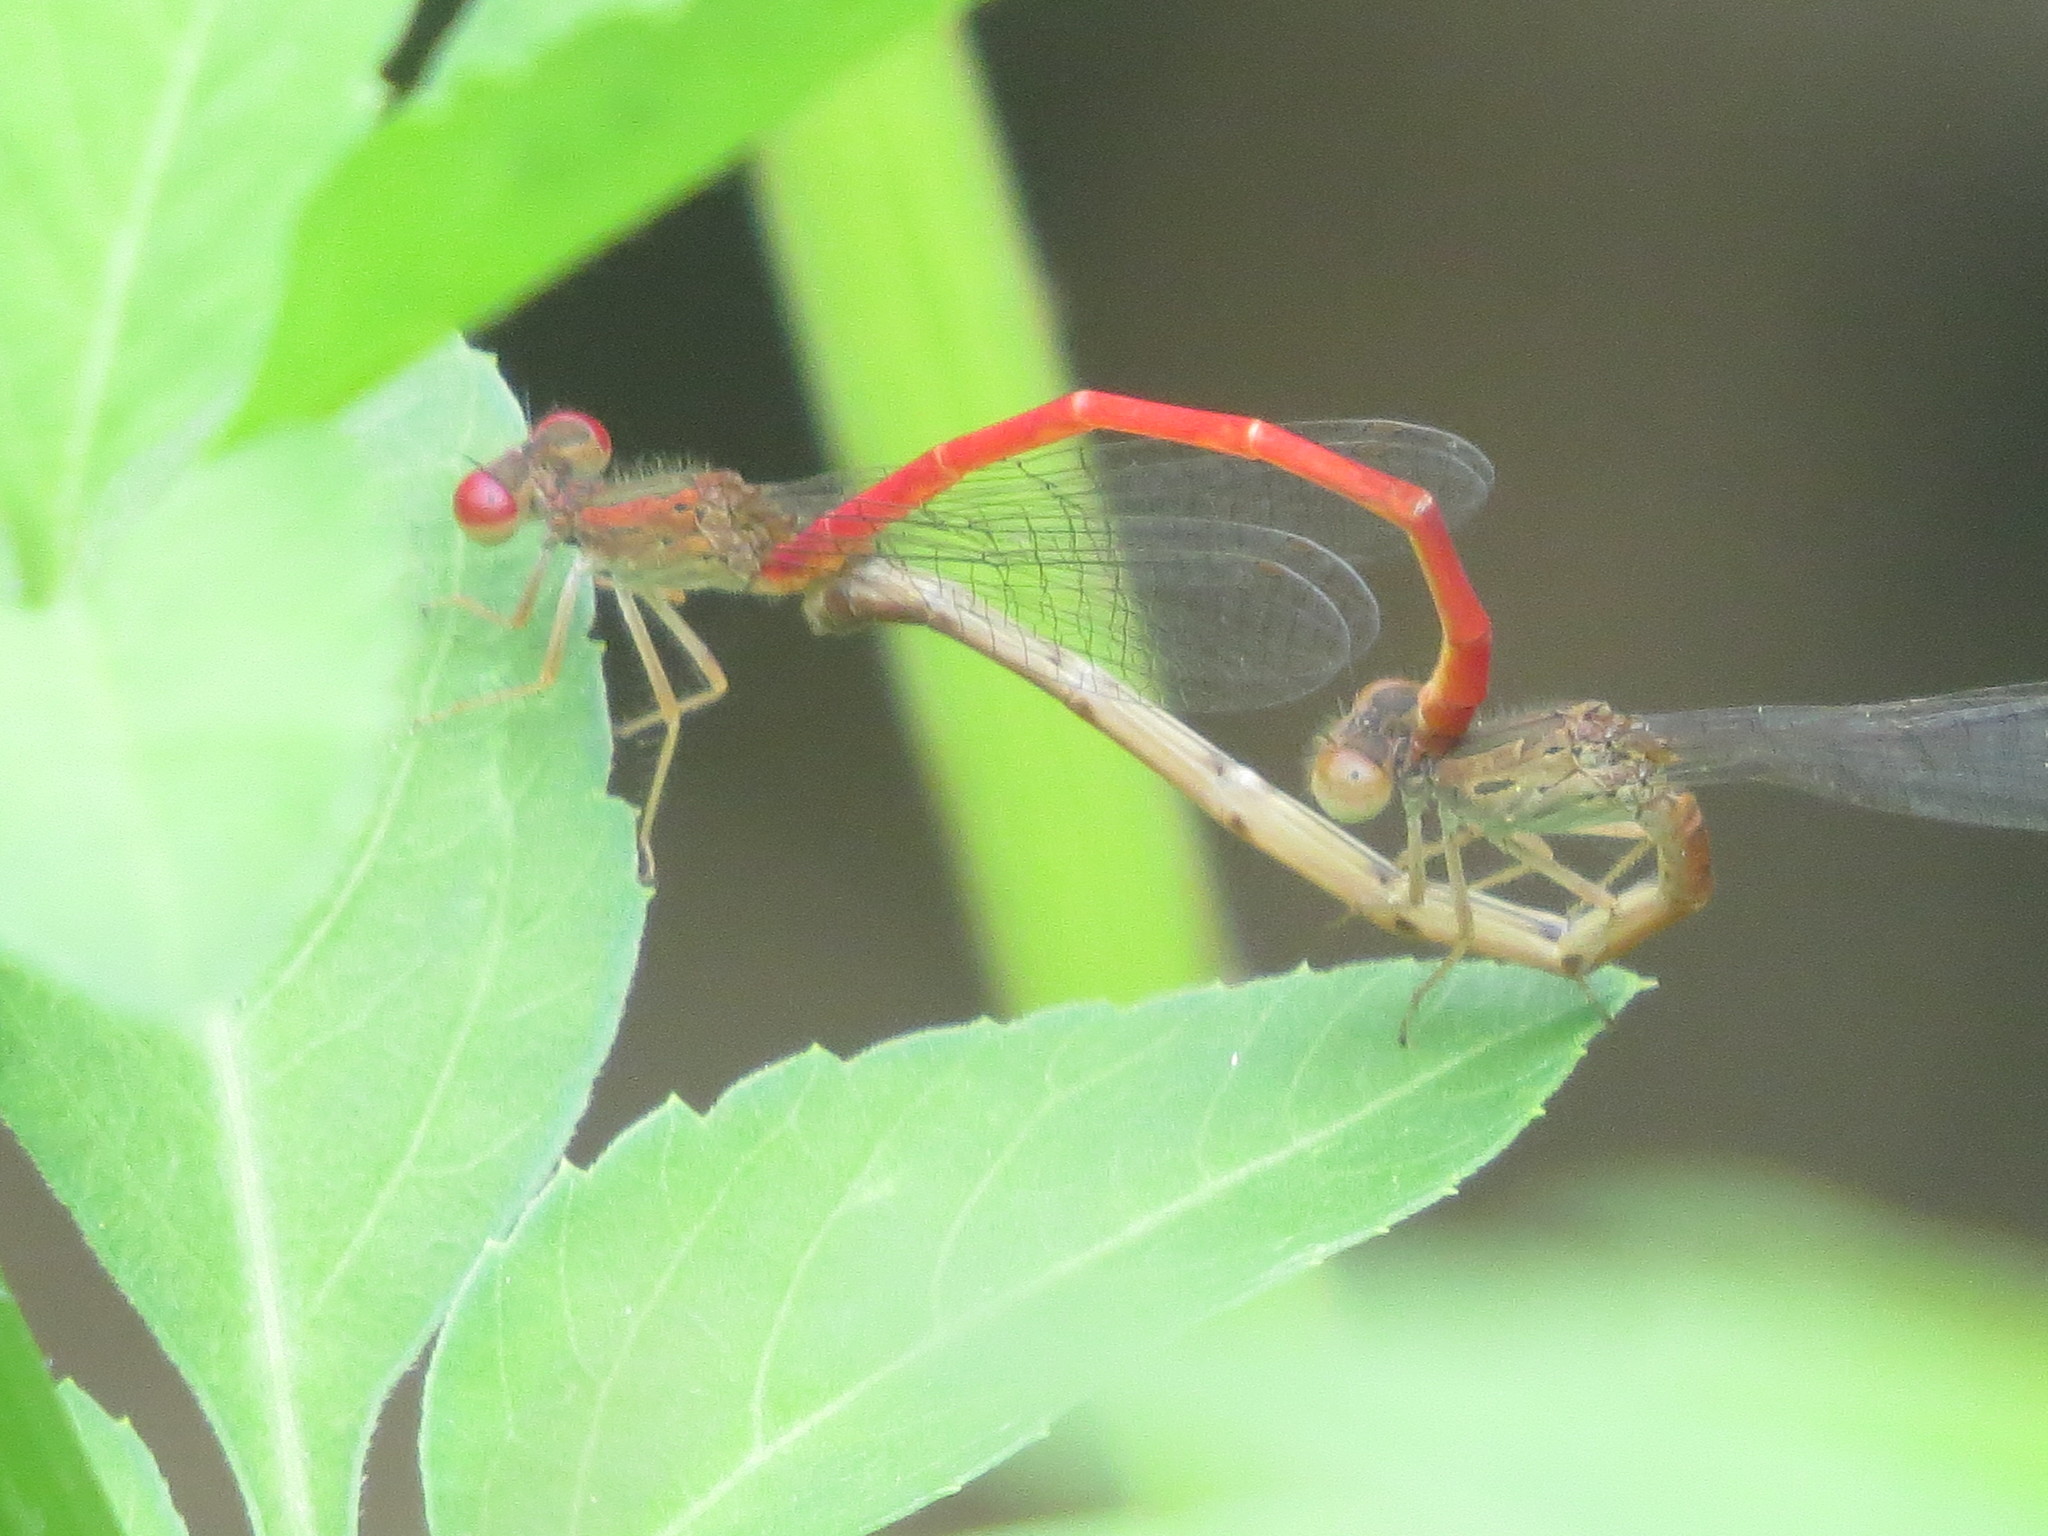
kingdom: Animalia
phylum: Arthropoda
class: Insecta
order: Odonata
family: Coenagrionidae
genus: Telebasis
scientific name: Telebasis salva
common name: Desert firetail
